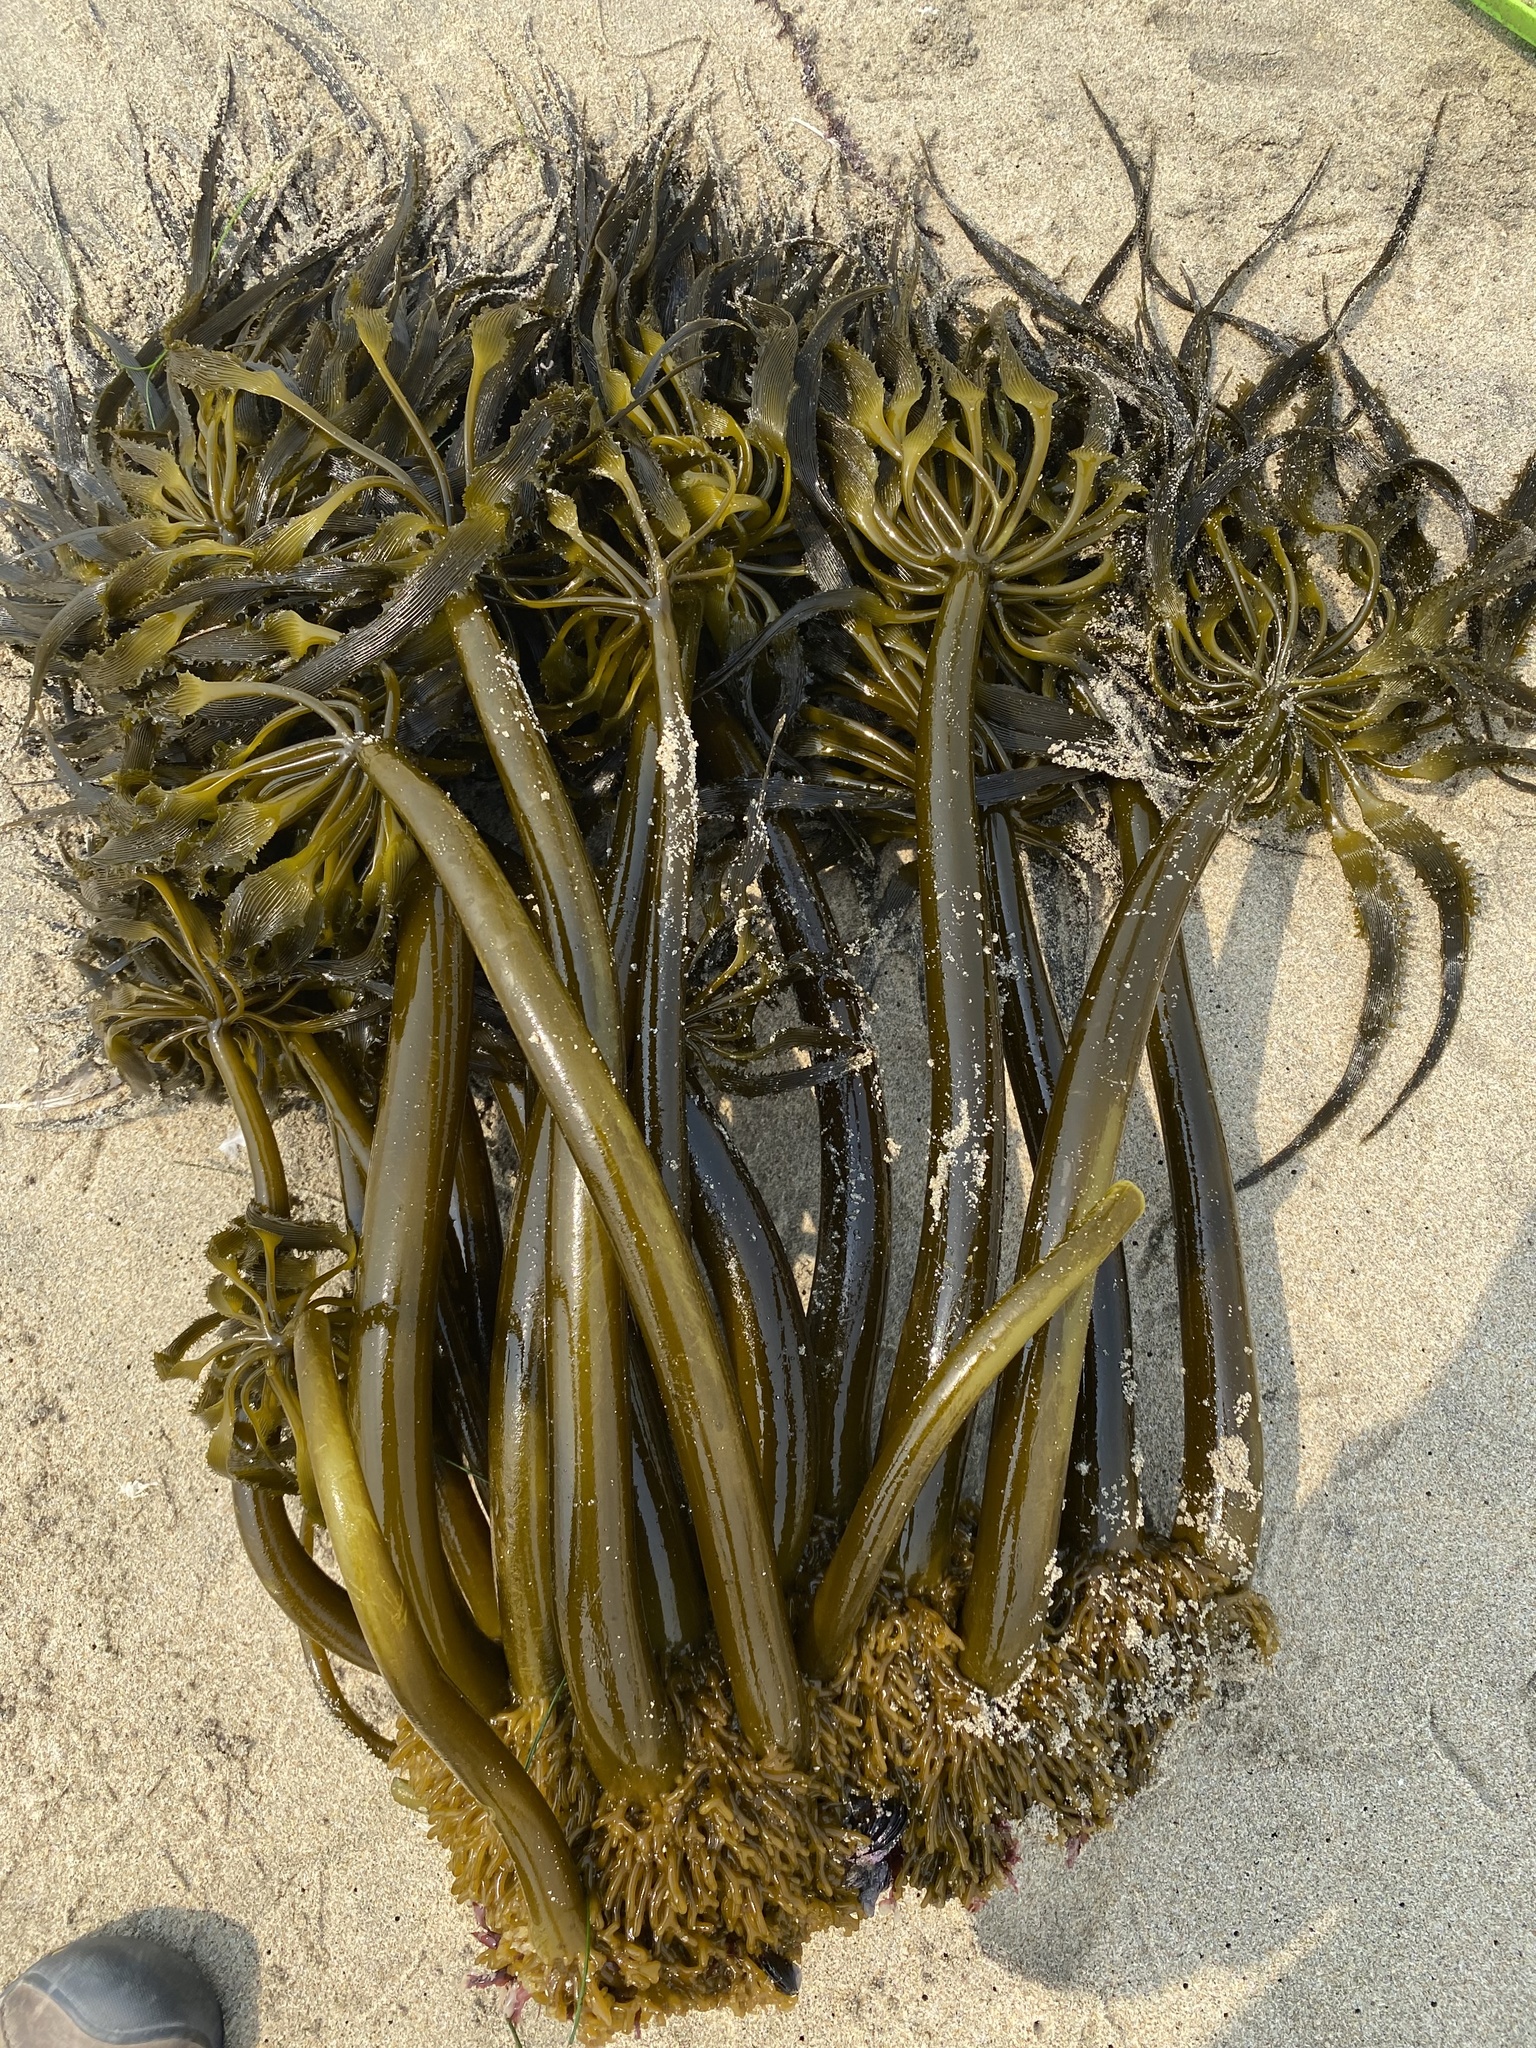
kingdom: Chromista
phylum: Ochrophyta
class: Phaeophyceae
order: Laminariales
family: Laminariaceae
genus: Postelsia
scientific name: Postelsia palmiformis
